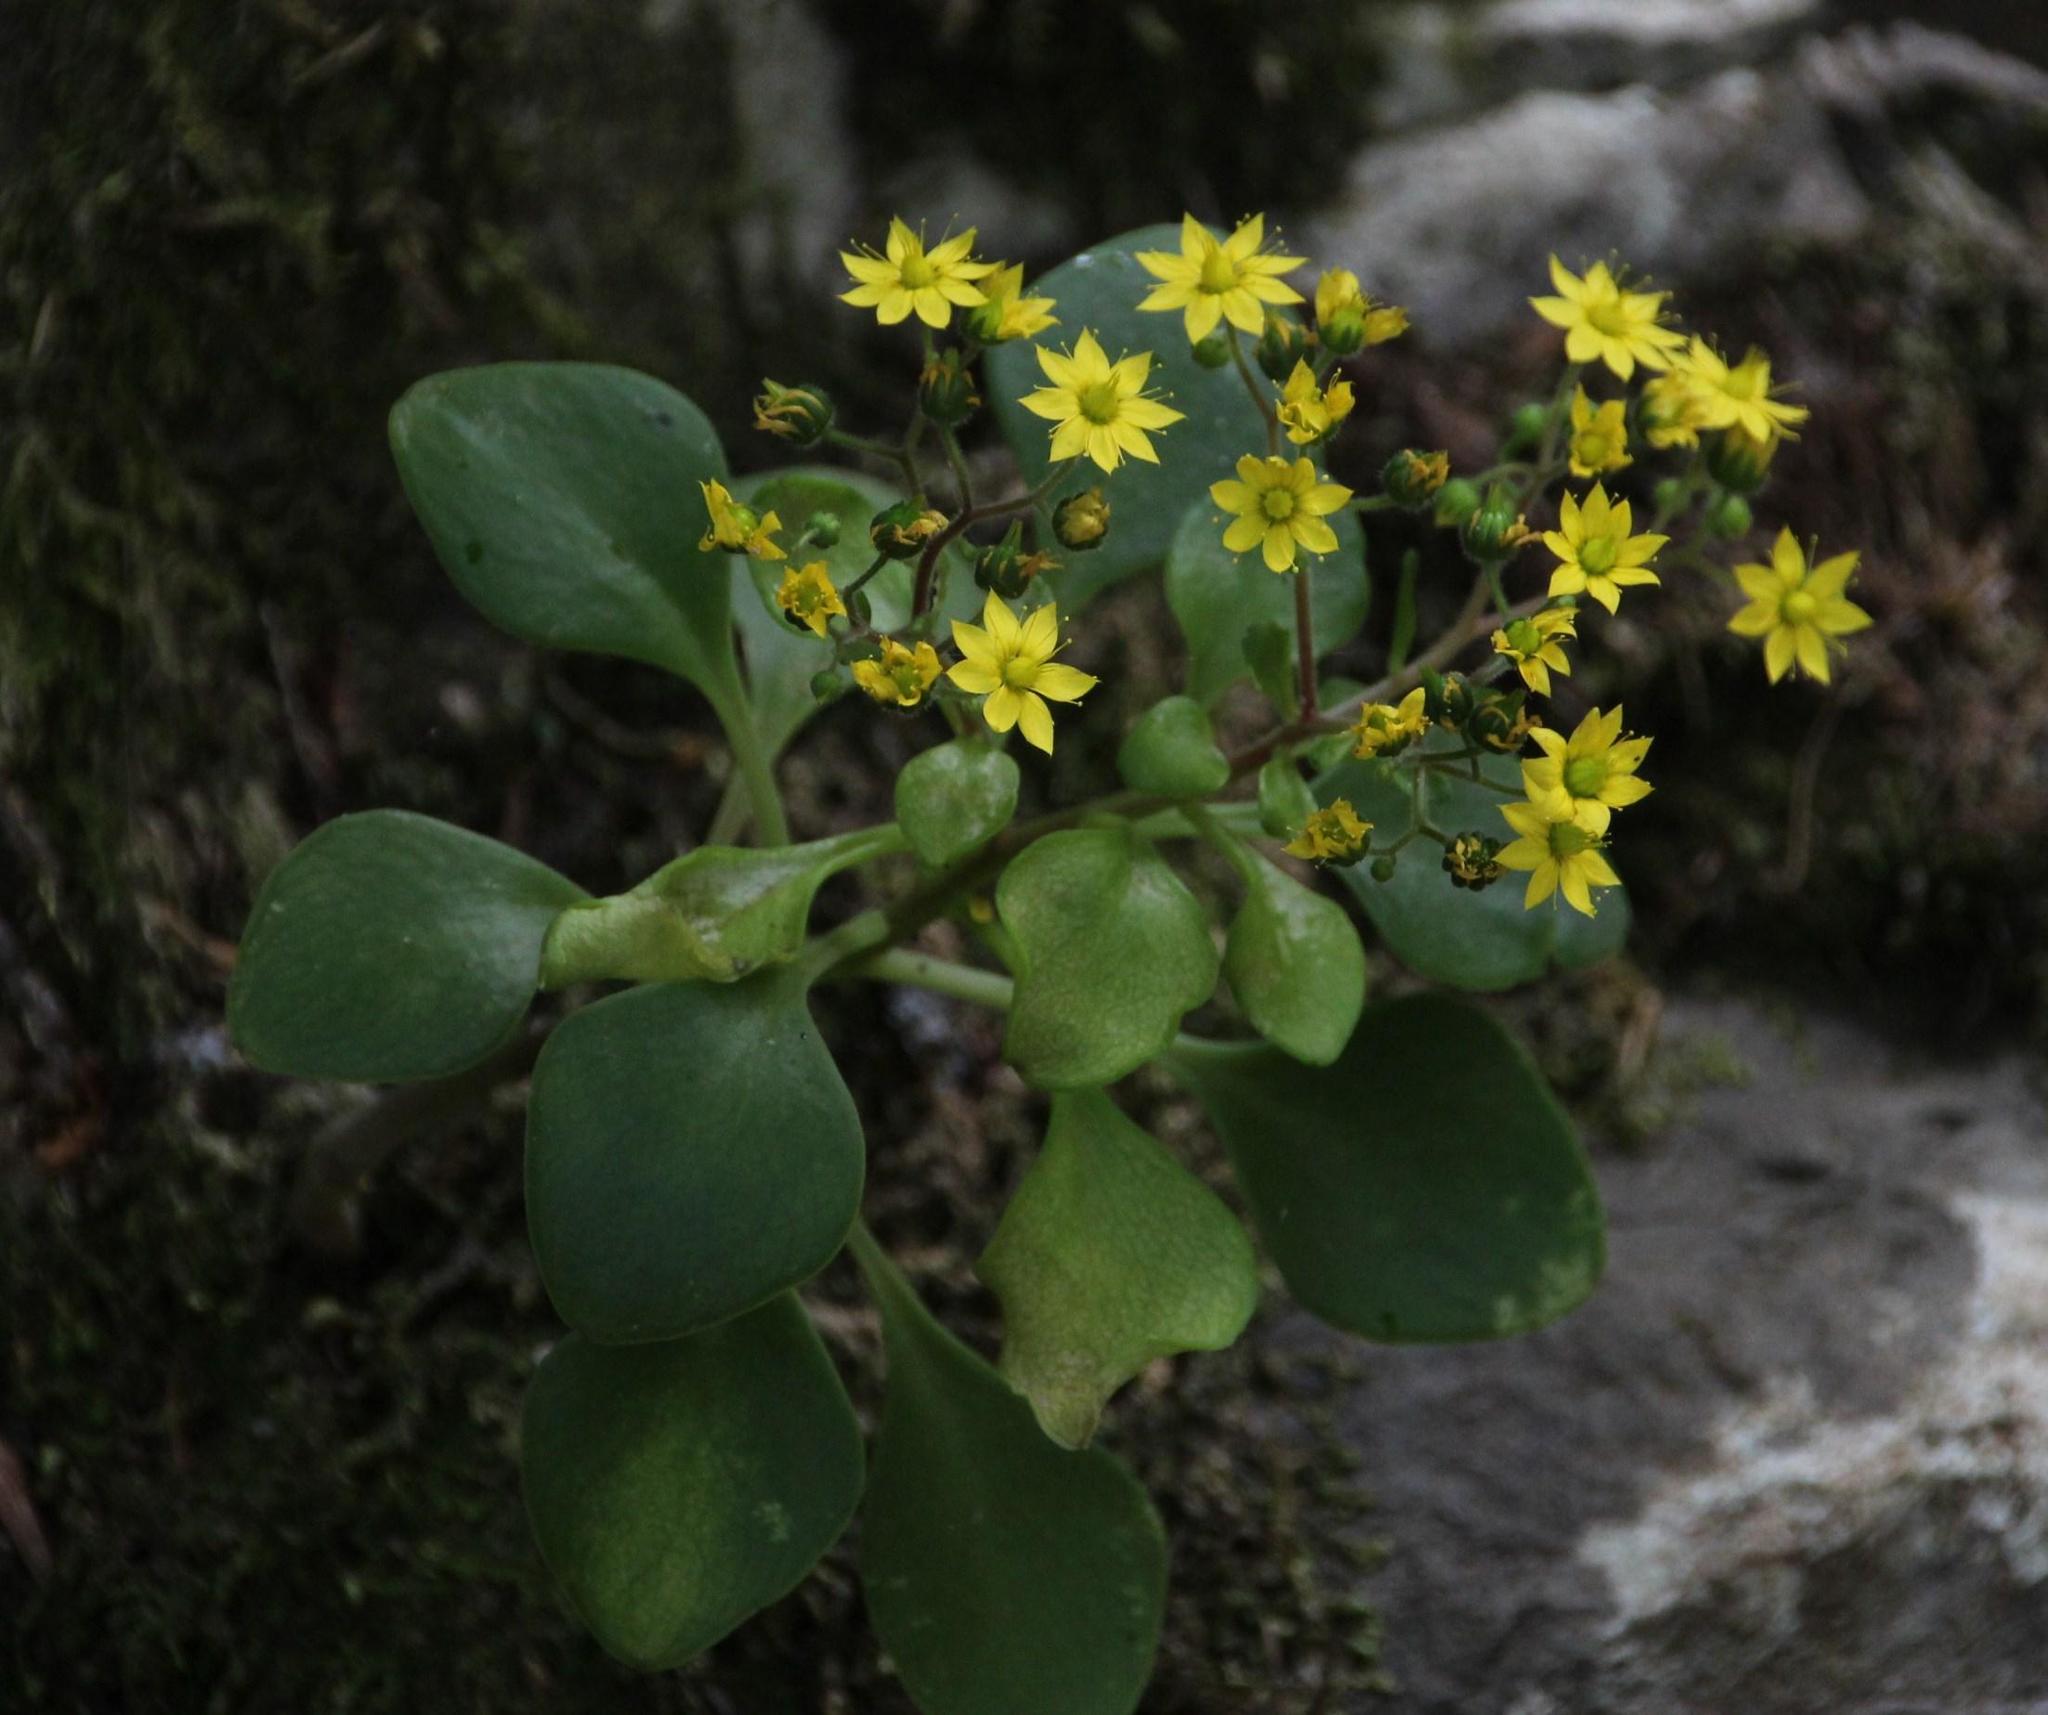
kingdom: Plantae
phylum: Tracheophyta
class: Magnoliopsida
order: Saxifragales
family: Crassulaceae
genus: Aichryson
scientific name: Aichryson divaricatum
